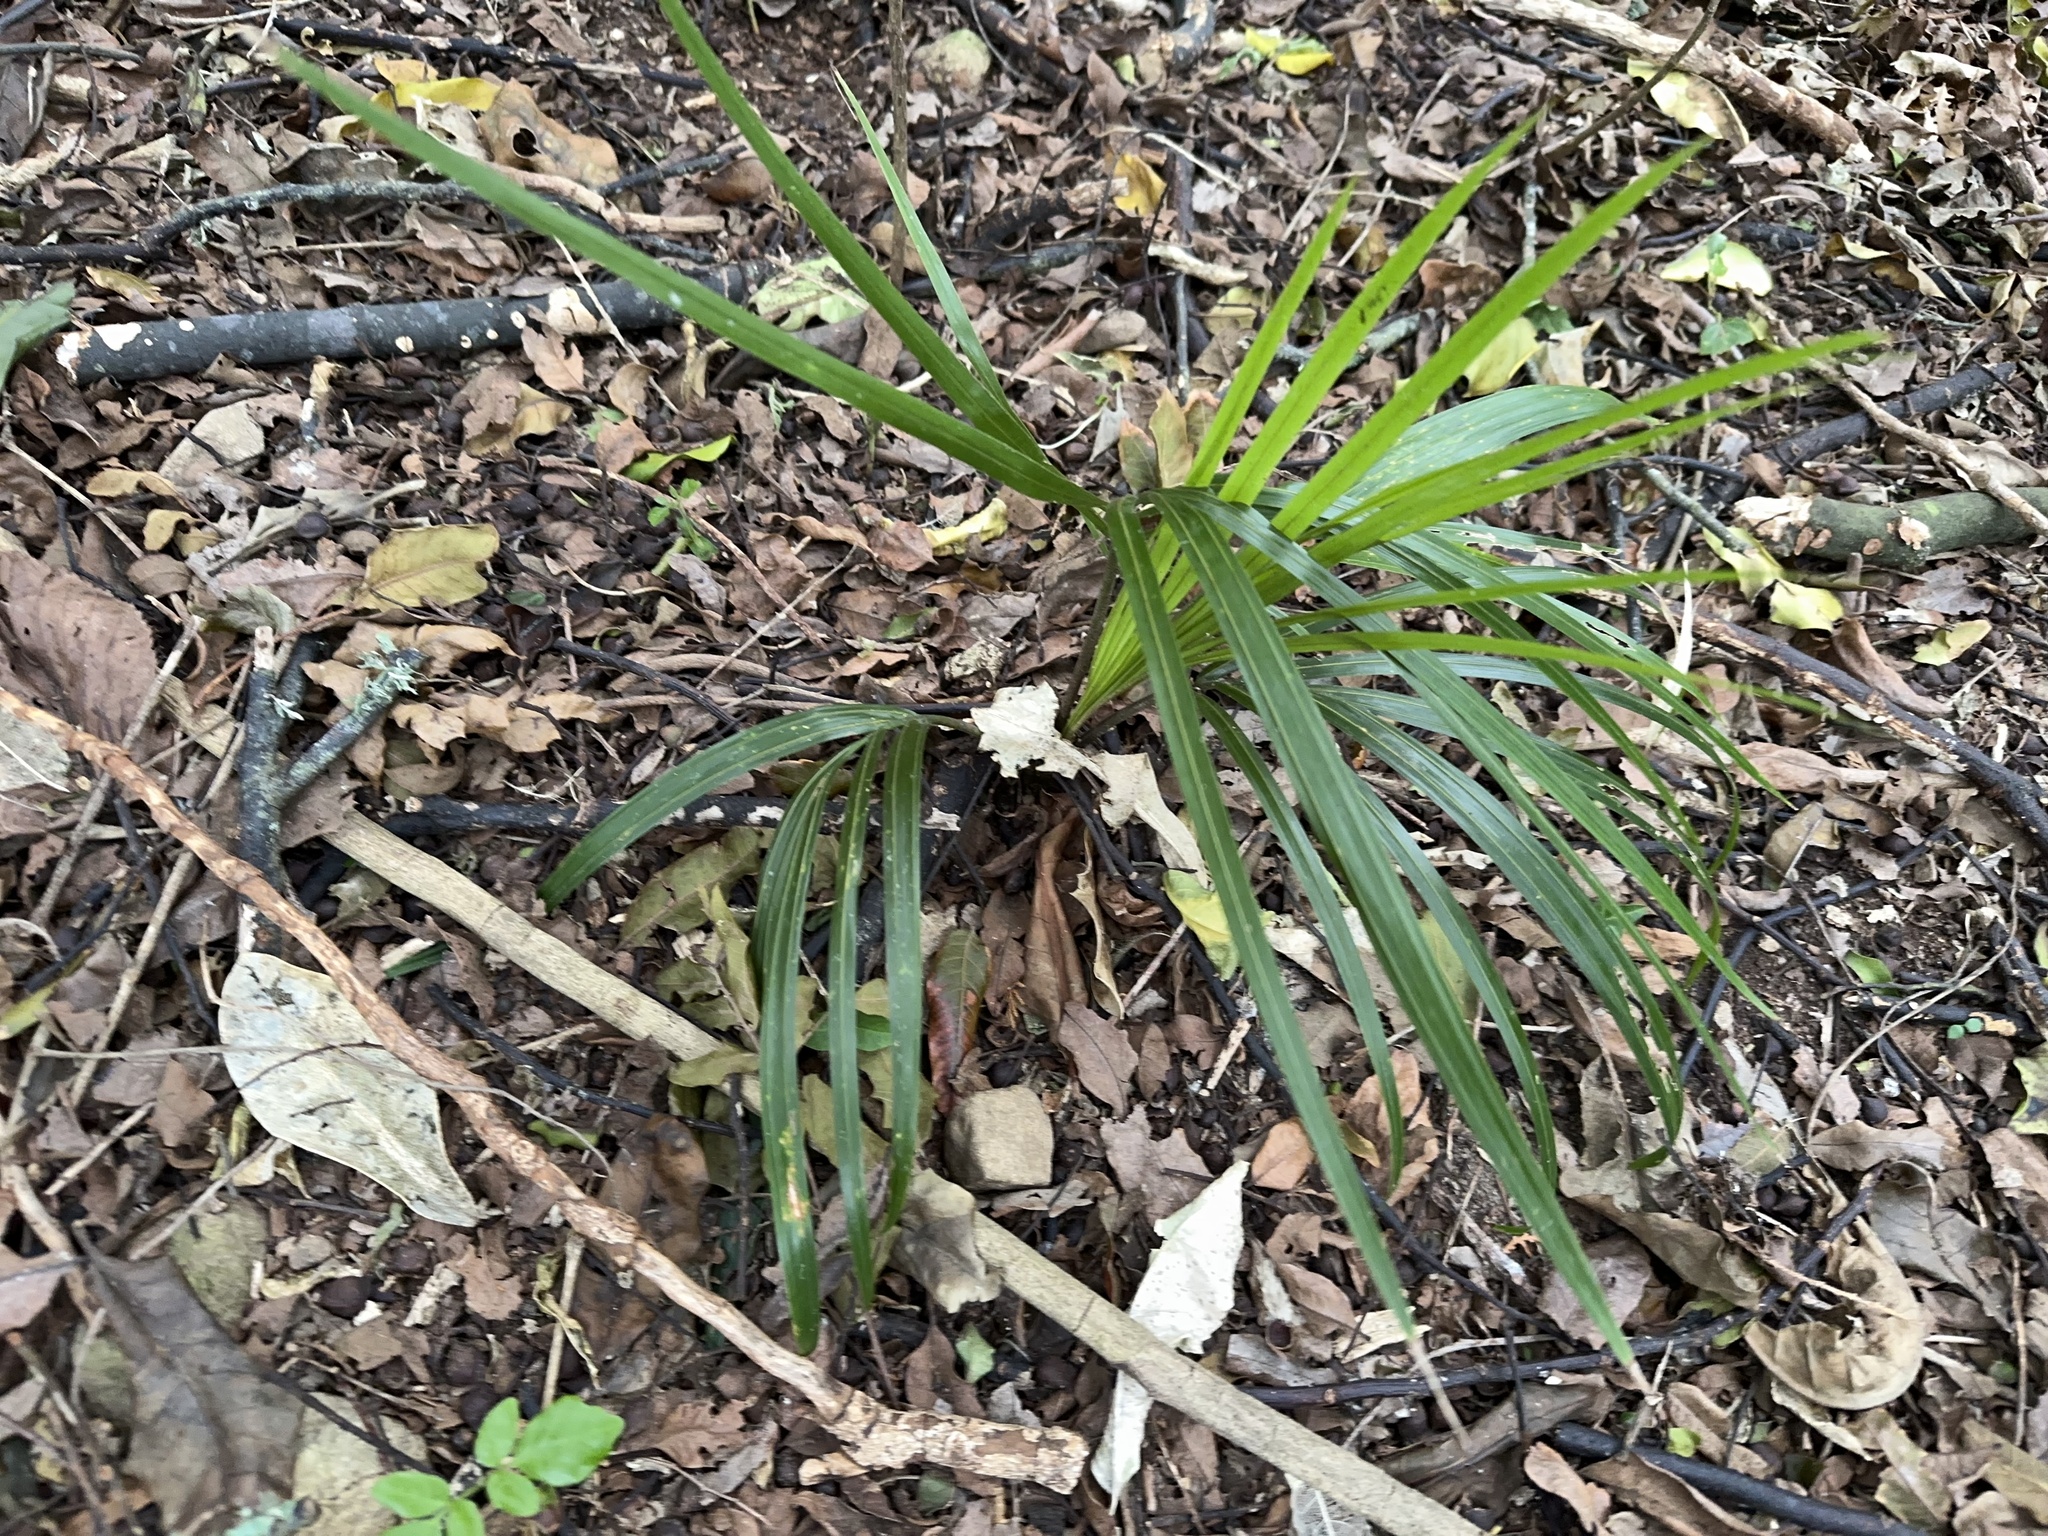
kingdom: Plantae
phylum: Tracheophyta
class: Liliopsida
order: Arecales
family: Arecaceae
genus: Rhopalostylis
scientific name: Rhopalostylis sapida
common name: Feather-duster palm
